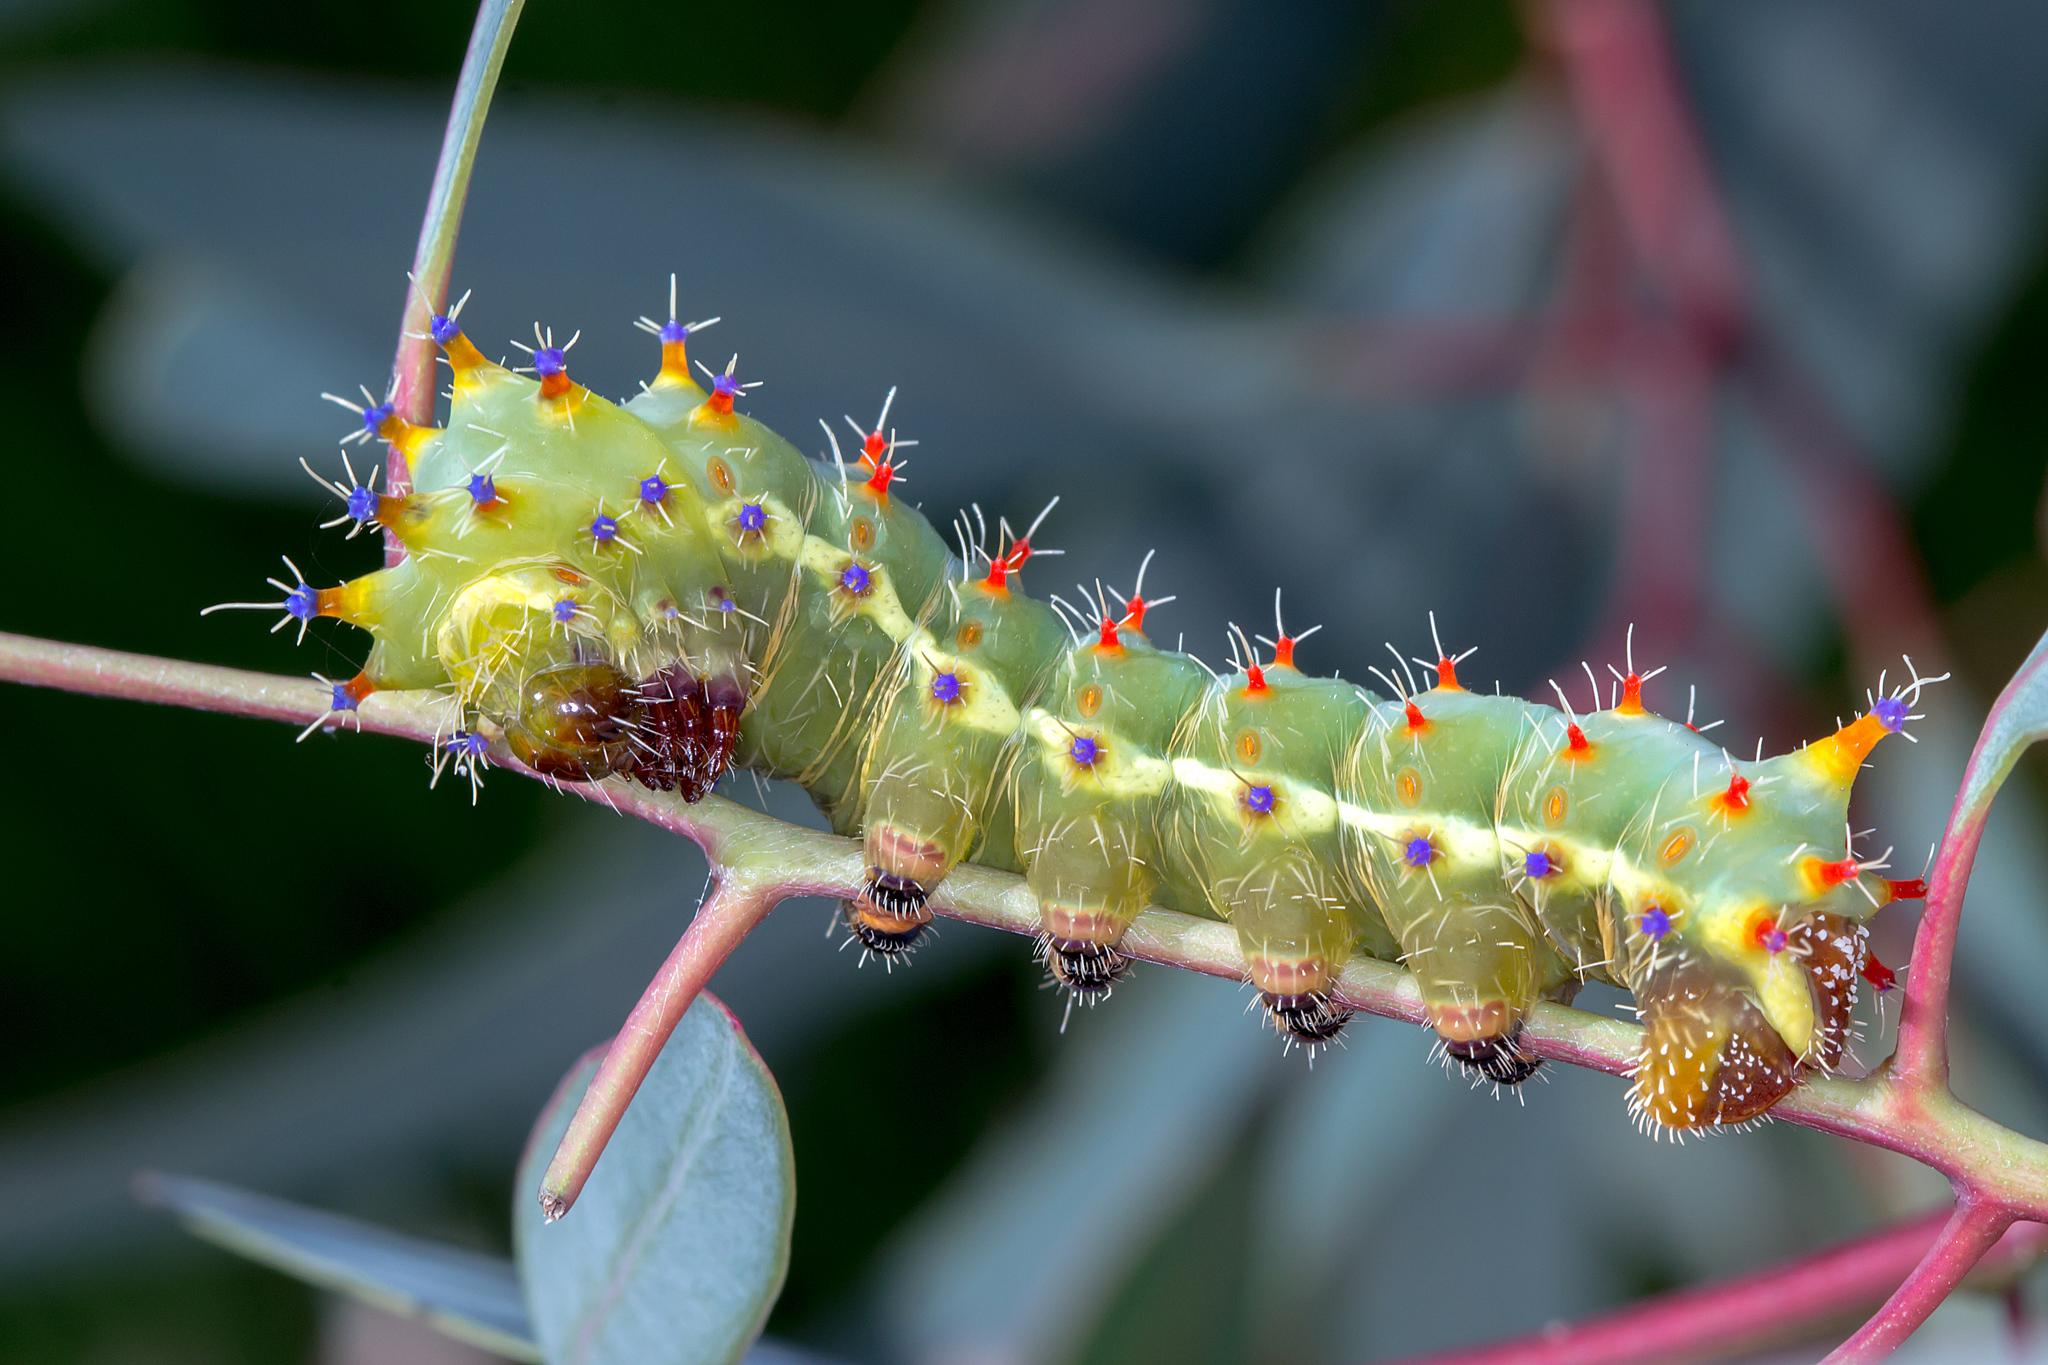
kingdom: Animalia
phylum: Arthropoda
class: Insecta
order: Lepidoptera
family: Saturniidae
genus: Opodiphthera
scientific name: Opodiphthera
